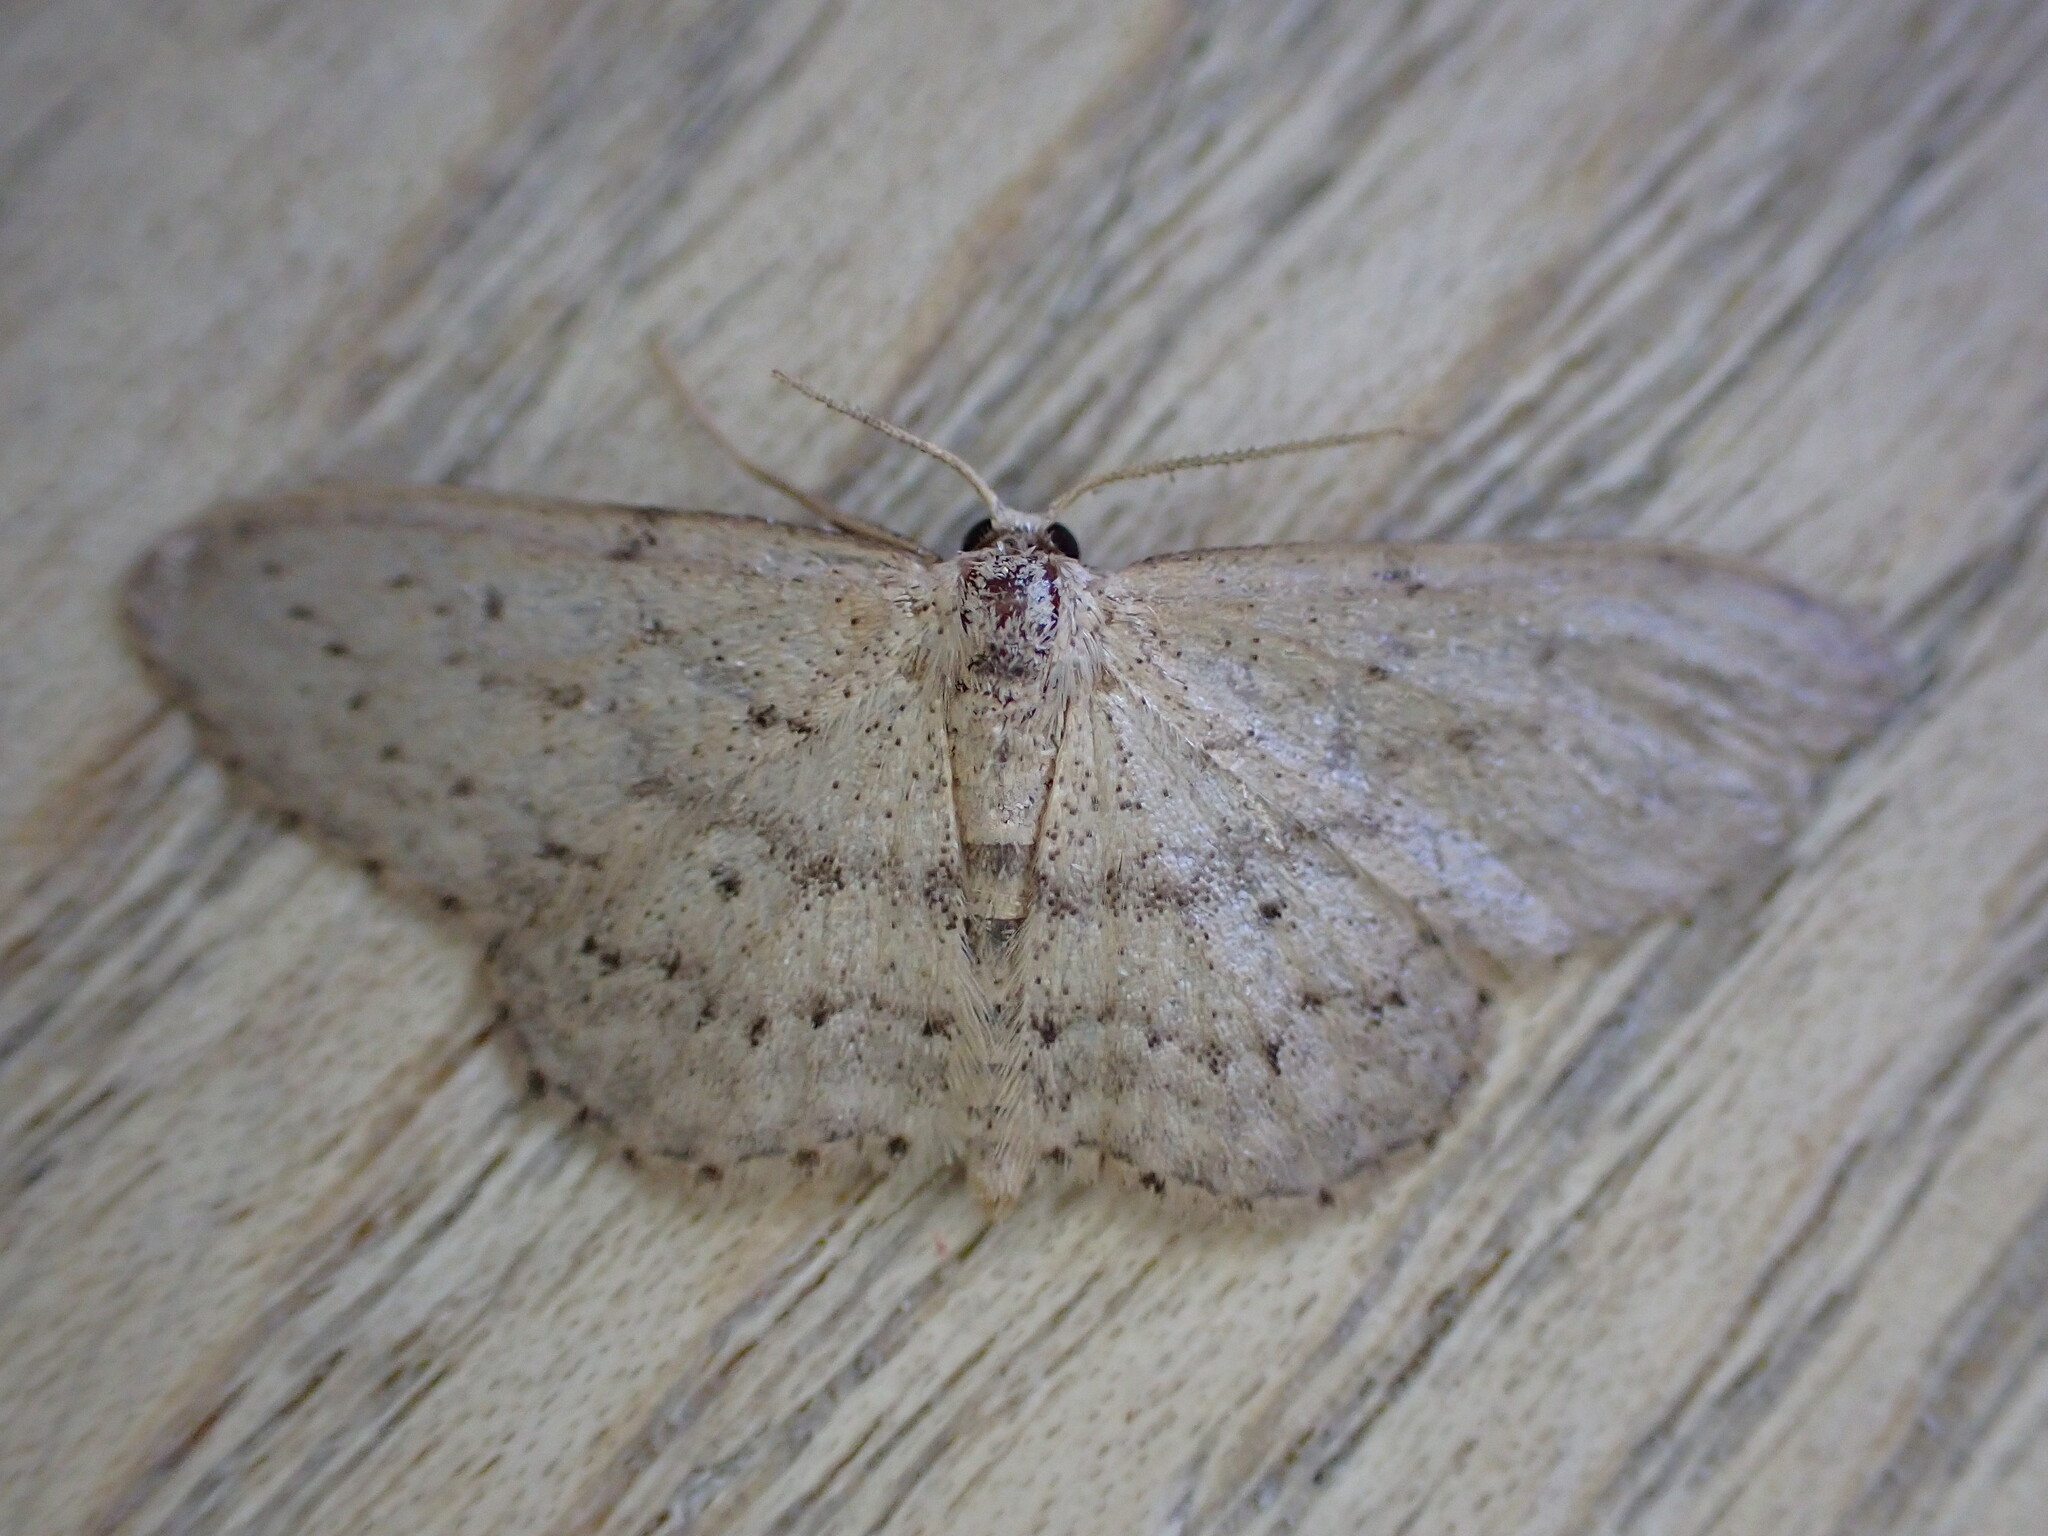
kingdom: Animalia
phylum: Arthropoda
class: Insecta
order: Lepidoptera
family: Geometridae
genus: Idaea
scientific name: Idaea seriata
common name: Small dusty wave
